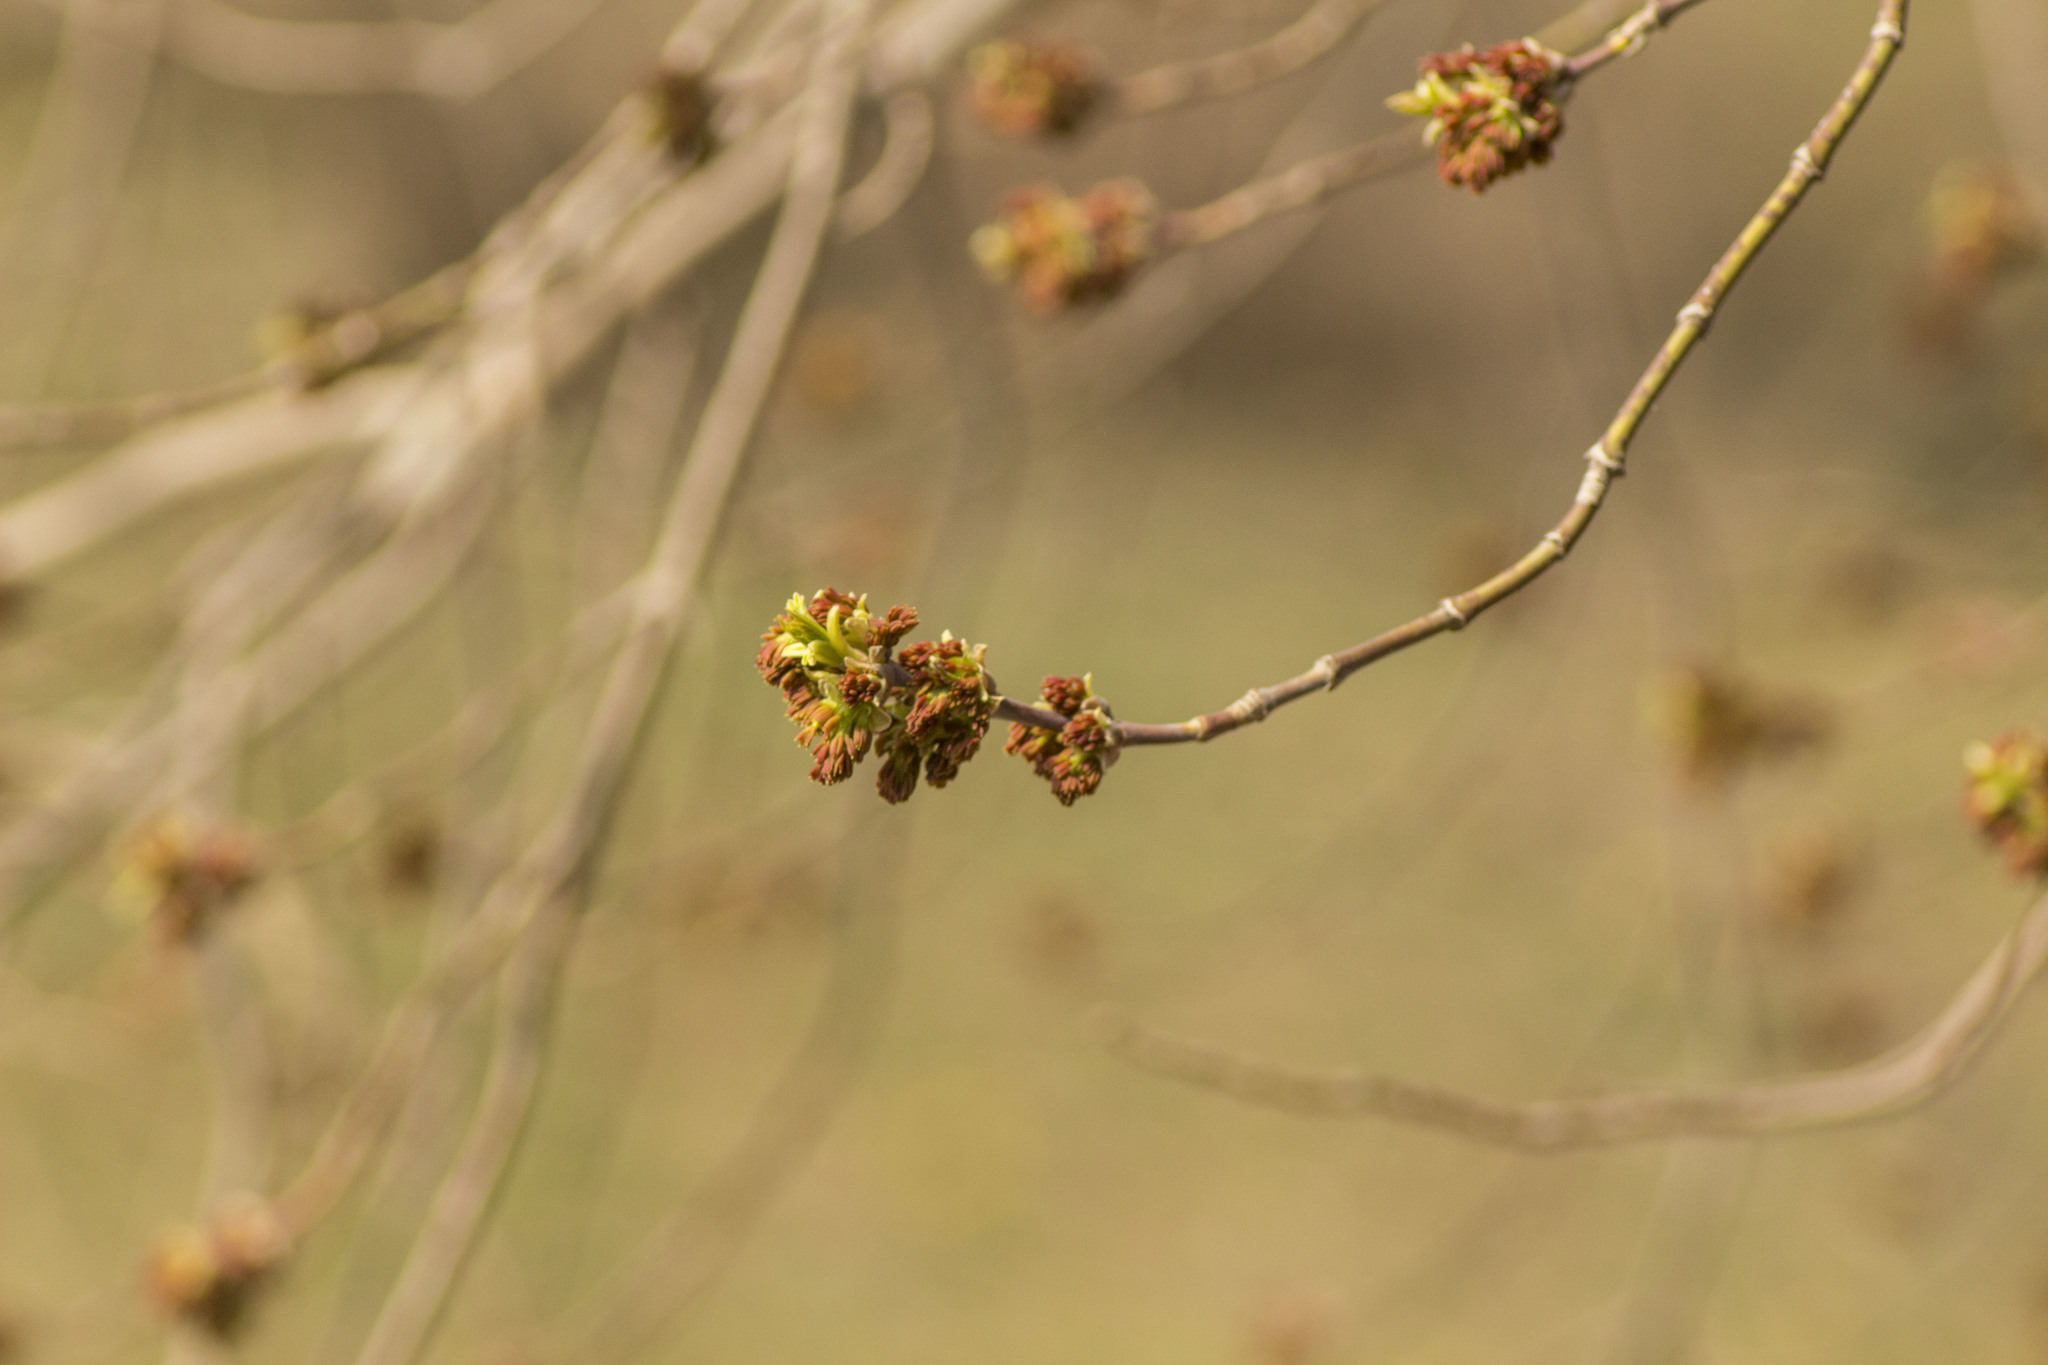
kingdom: Plantae
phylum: Tracheophyta
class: Magnoliopsida
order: Sapindales
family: Sapindaceae
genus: Acer
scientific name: Acer negundo
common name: Ashleaf maple
